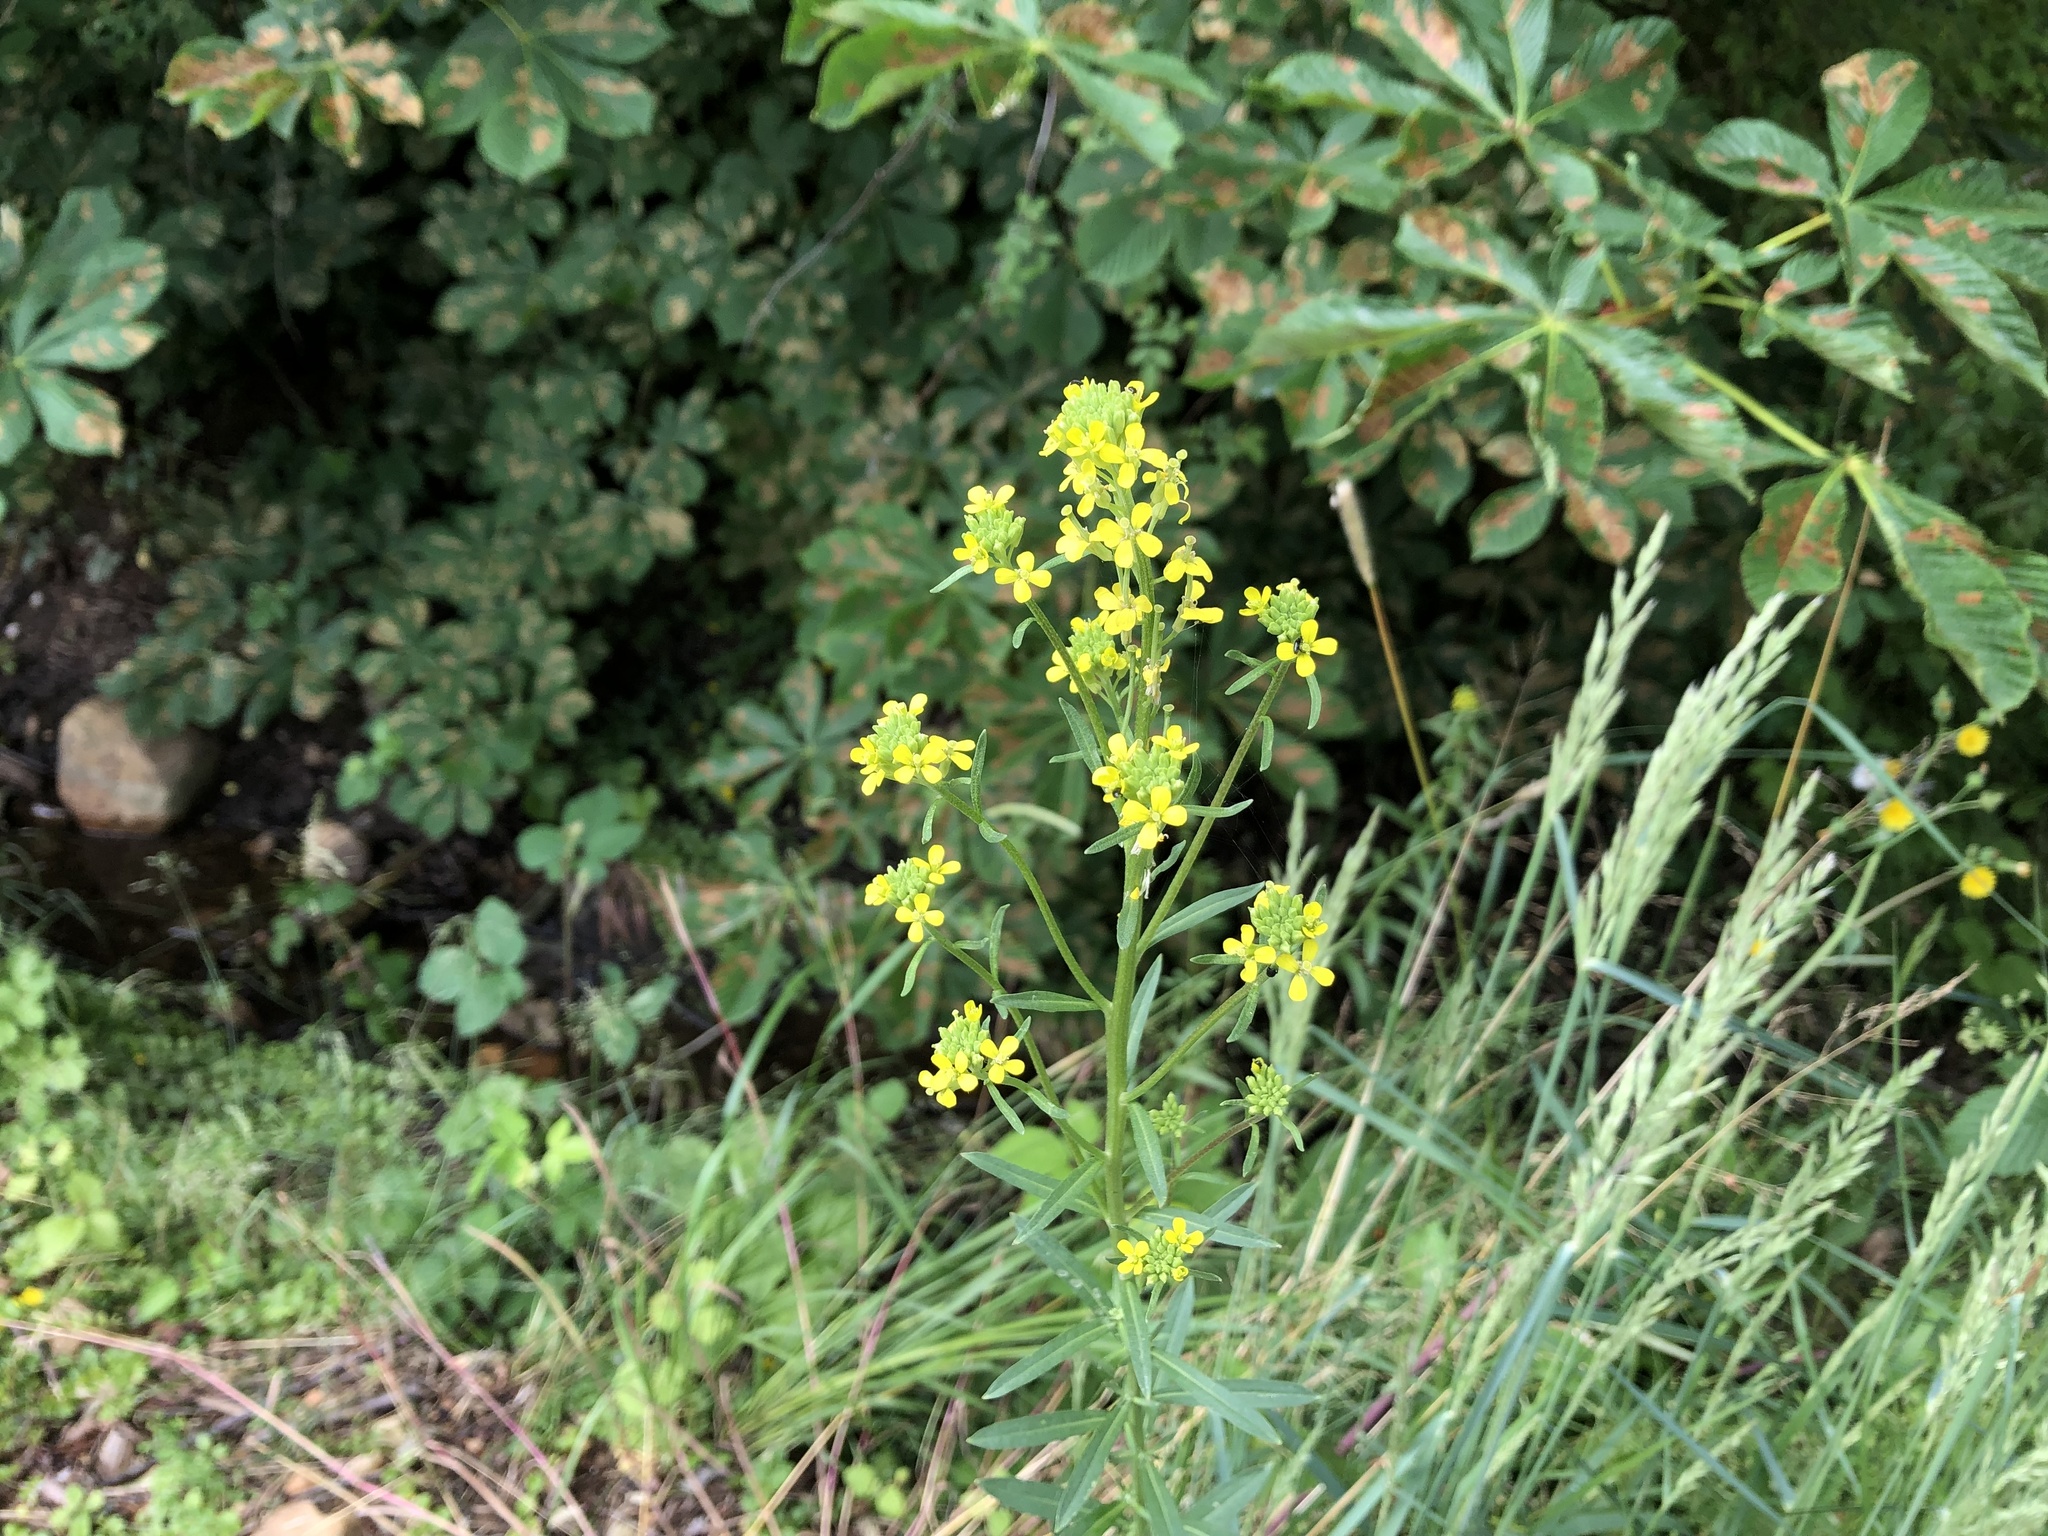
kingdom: Plantae
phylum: Tracheophyta
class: Magnoliopsida
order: Brassicales
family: Brassicaceae
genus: Erysimum
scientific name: Erysimum marschallianum
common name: Hard wallflower
